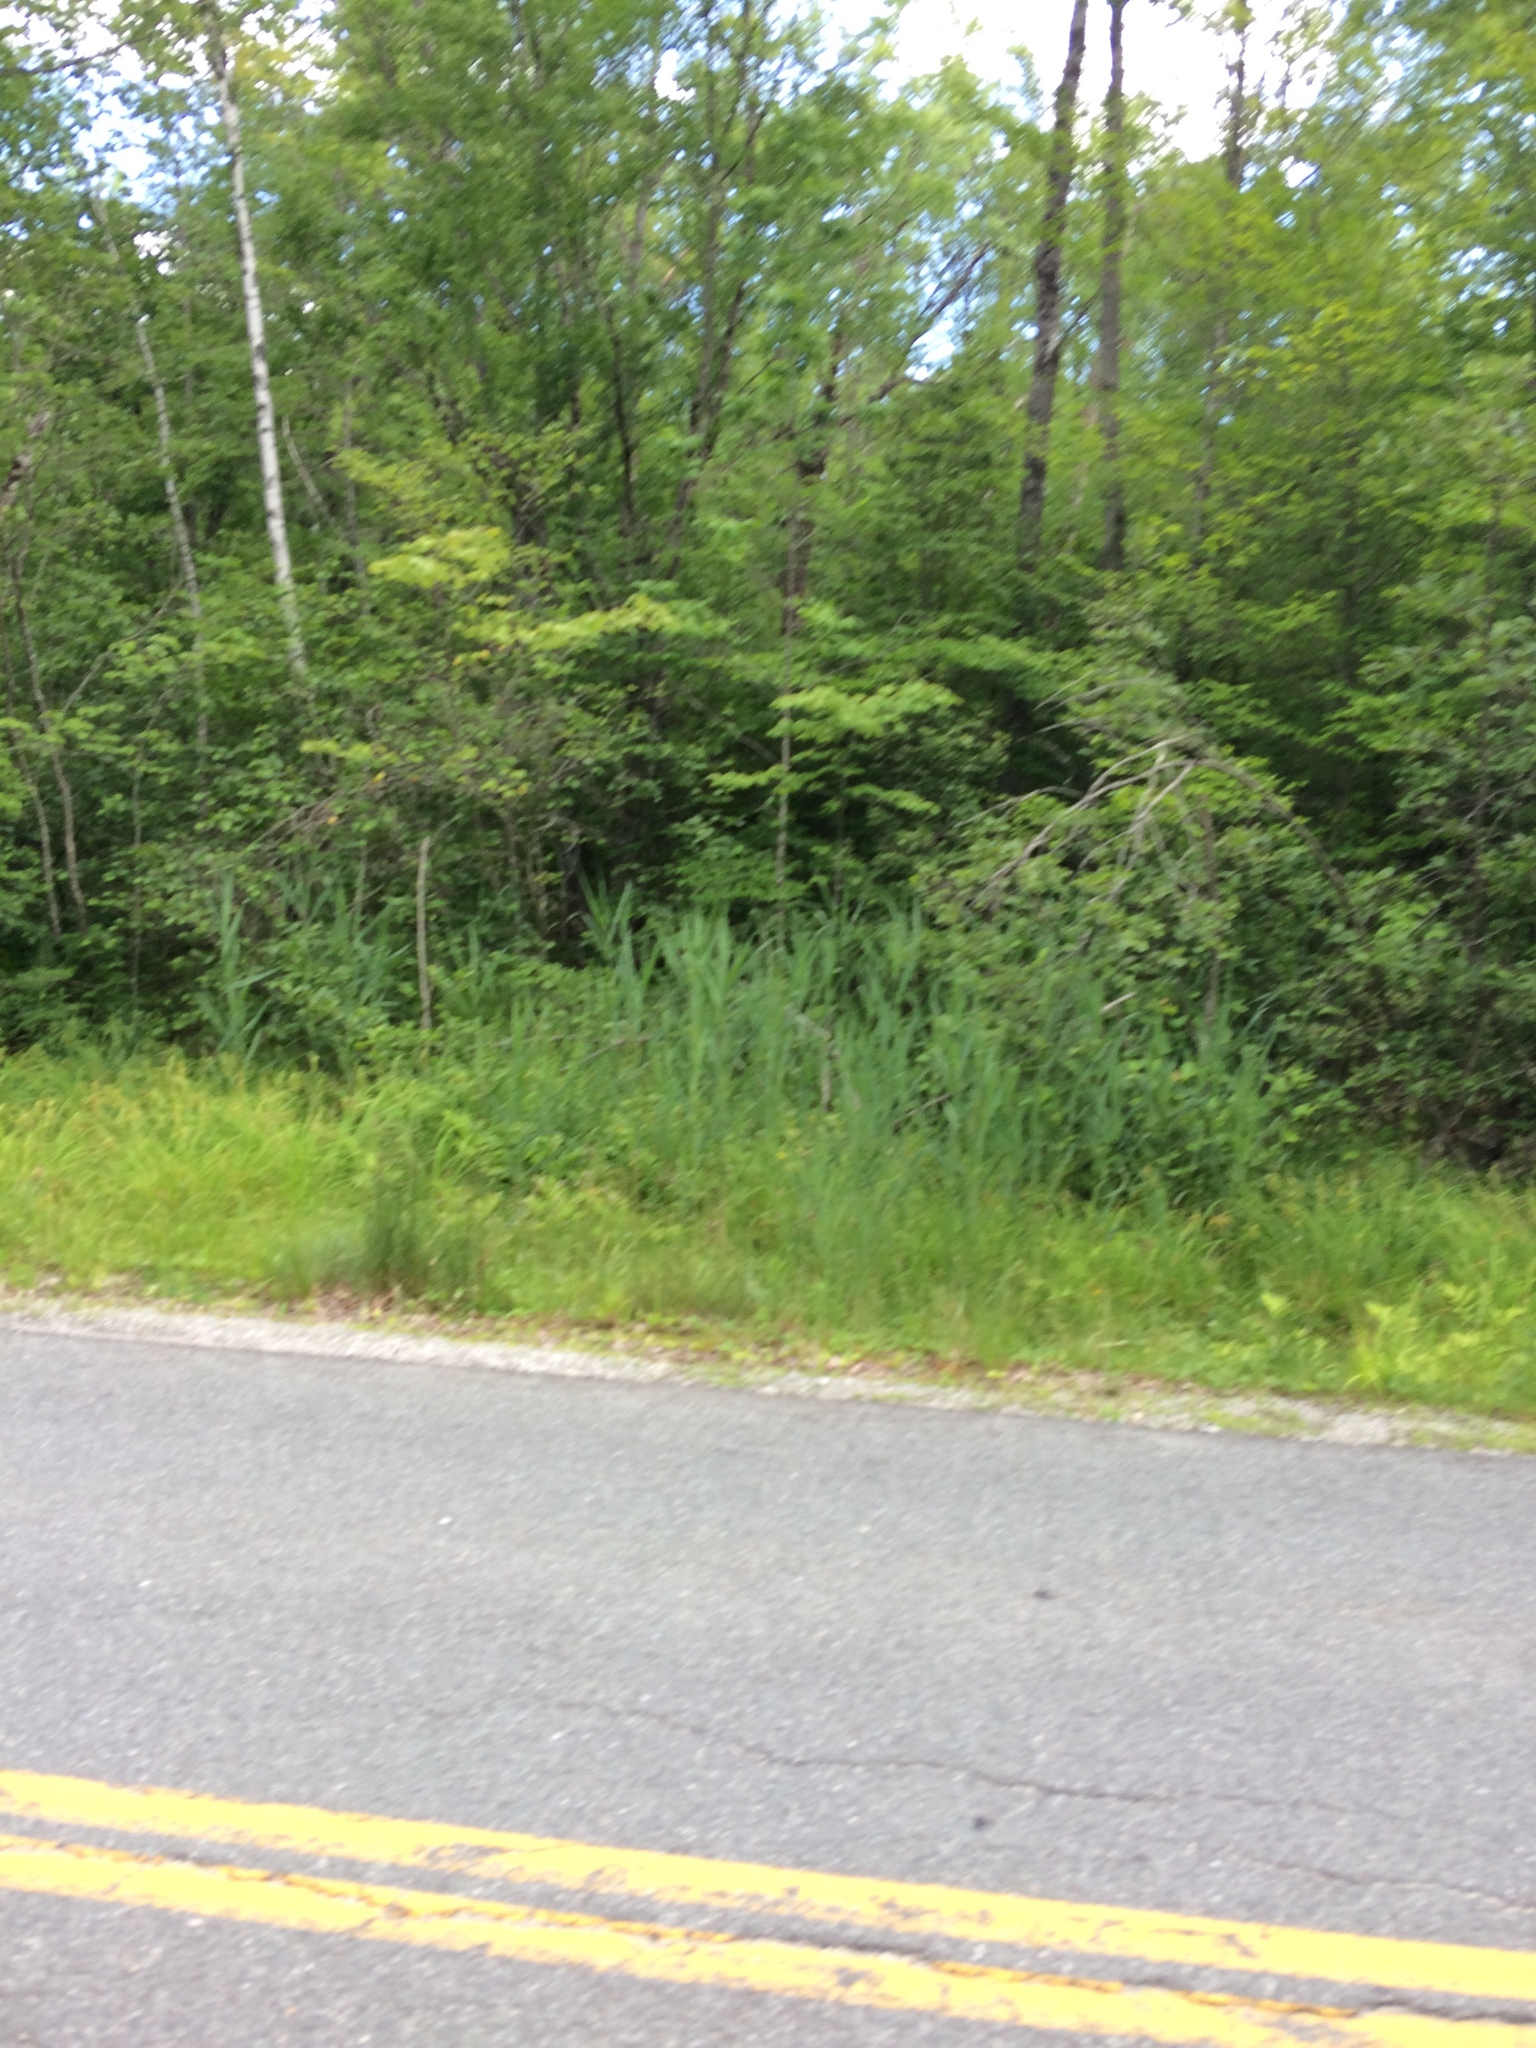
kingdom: Plantae
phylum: Tracheophyta
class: Liliopsida
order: Poales
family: Poaceae
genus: Phragmites
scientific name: Phragmites australis
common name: Common reed
